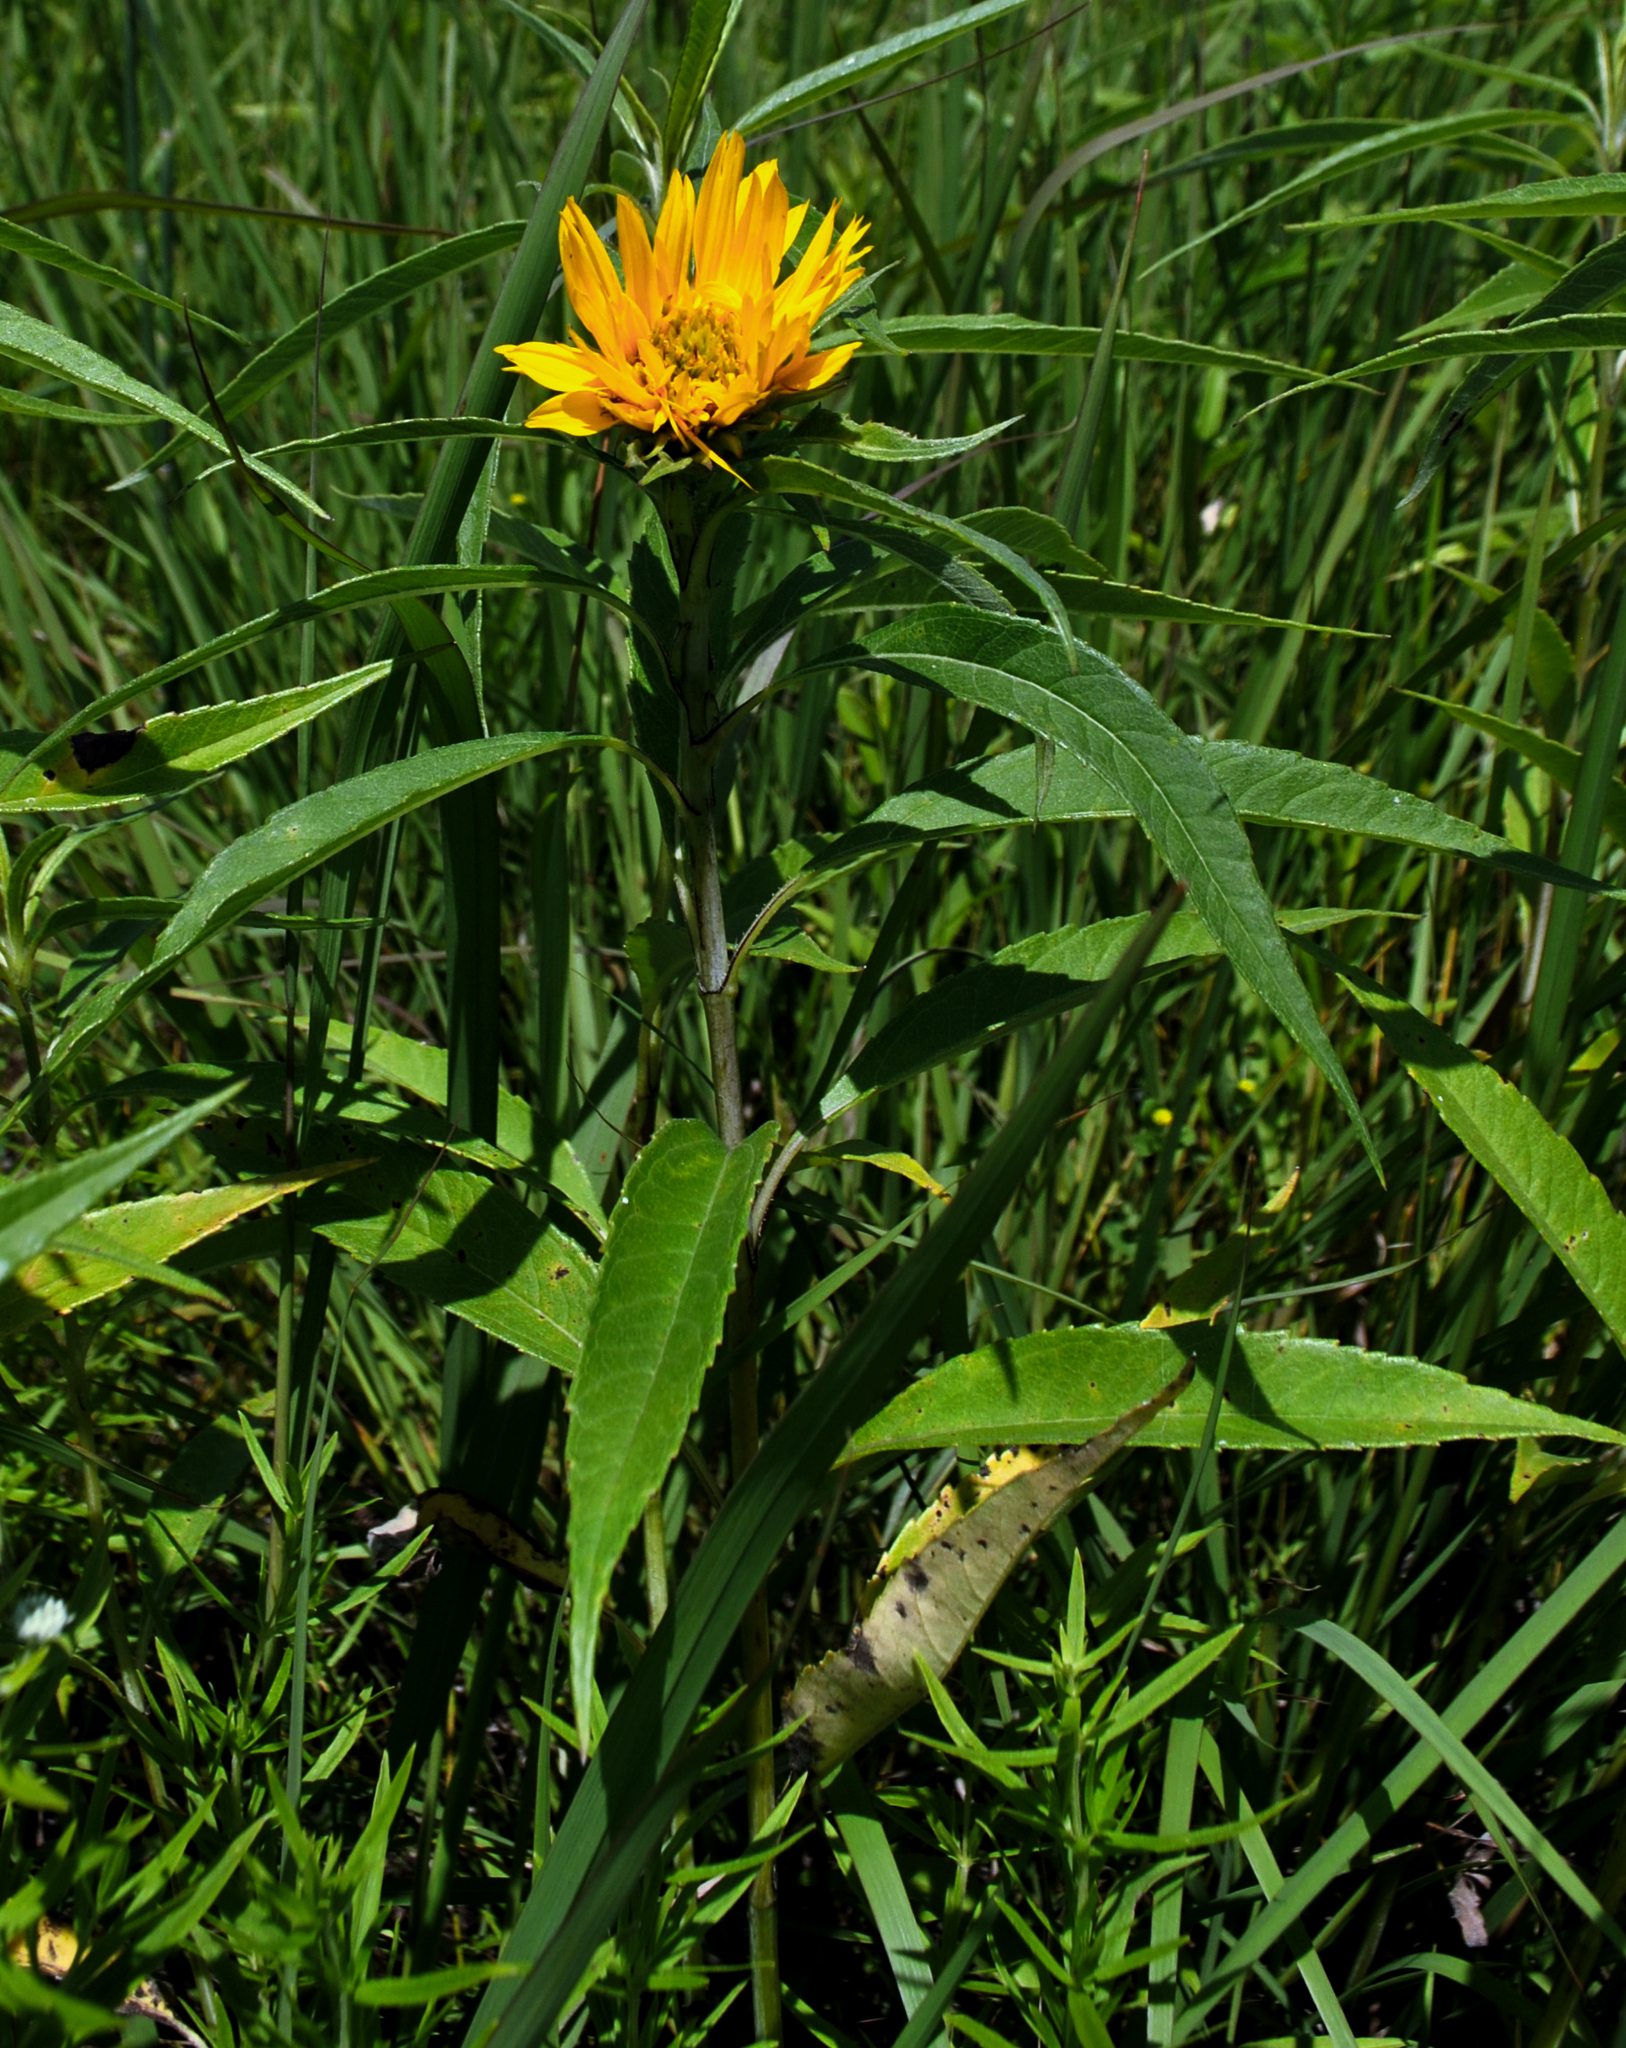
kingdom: Plantae
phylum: Tracheophyta
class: Magnoliopsida
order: Asterales
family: Asteraceae
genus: Helianthus
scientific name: Helianthus grosseserratus
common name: Sawtooth sunflower
